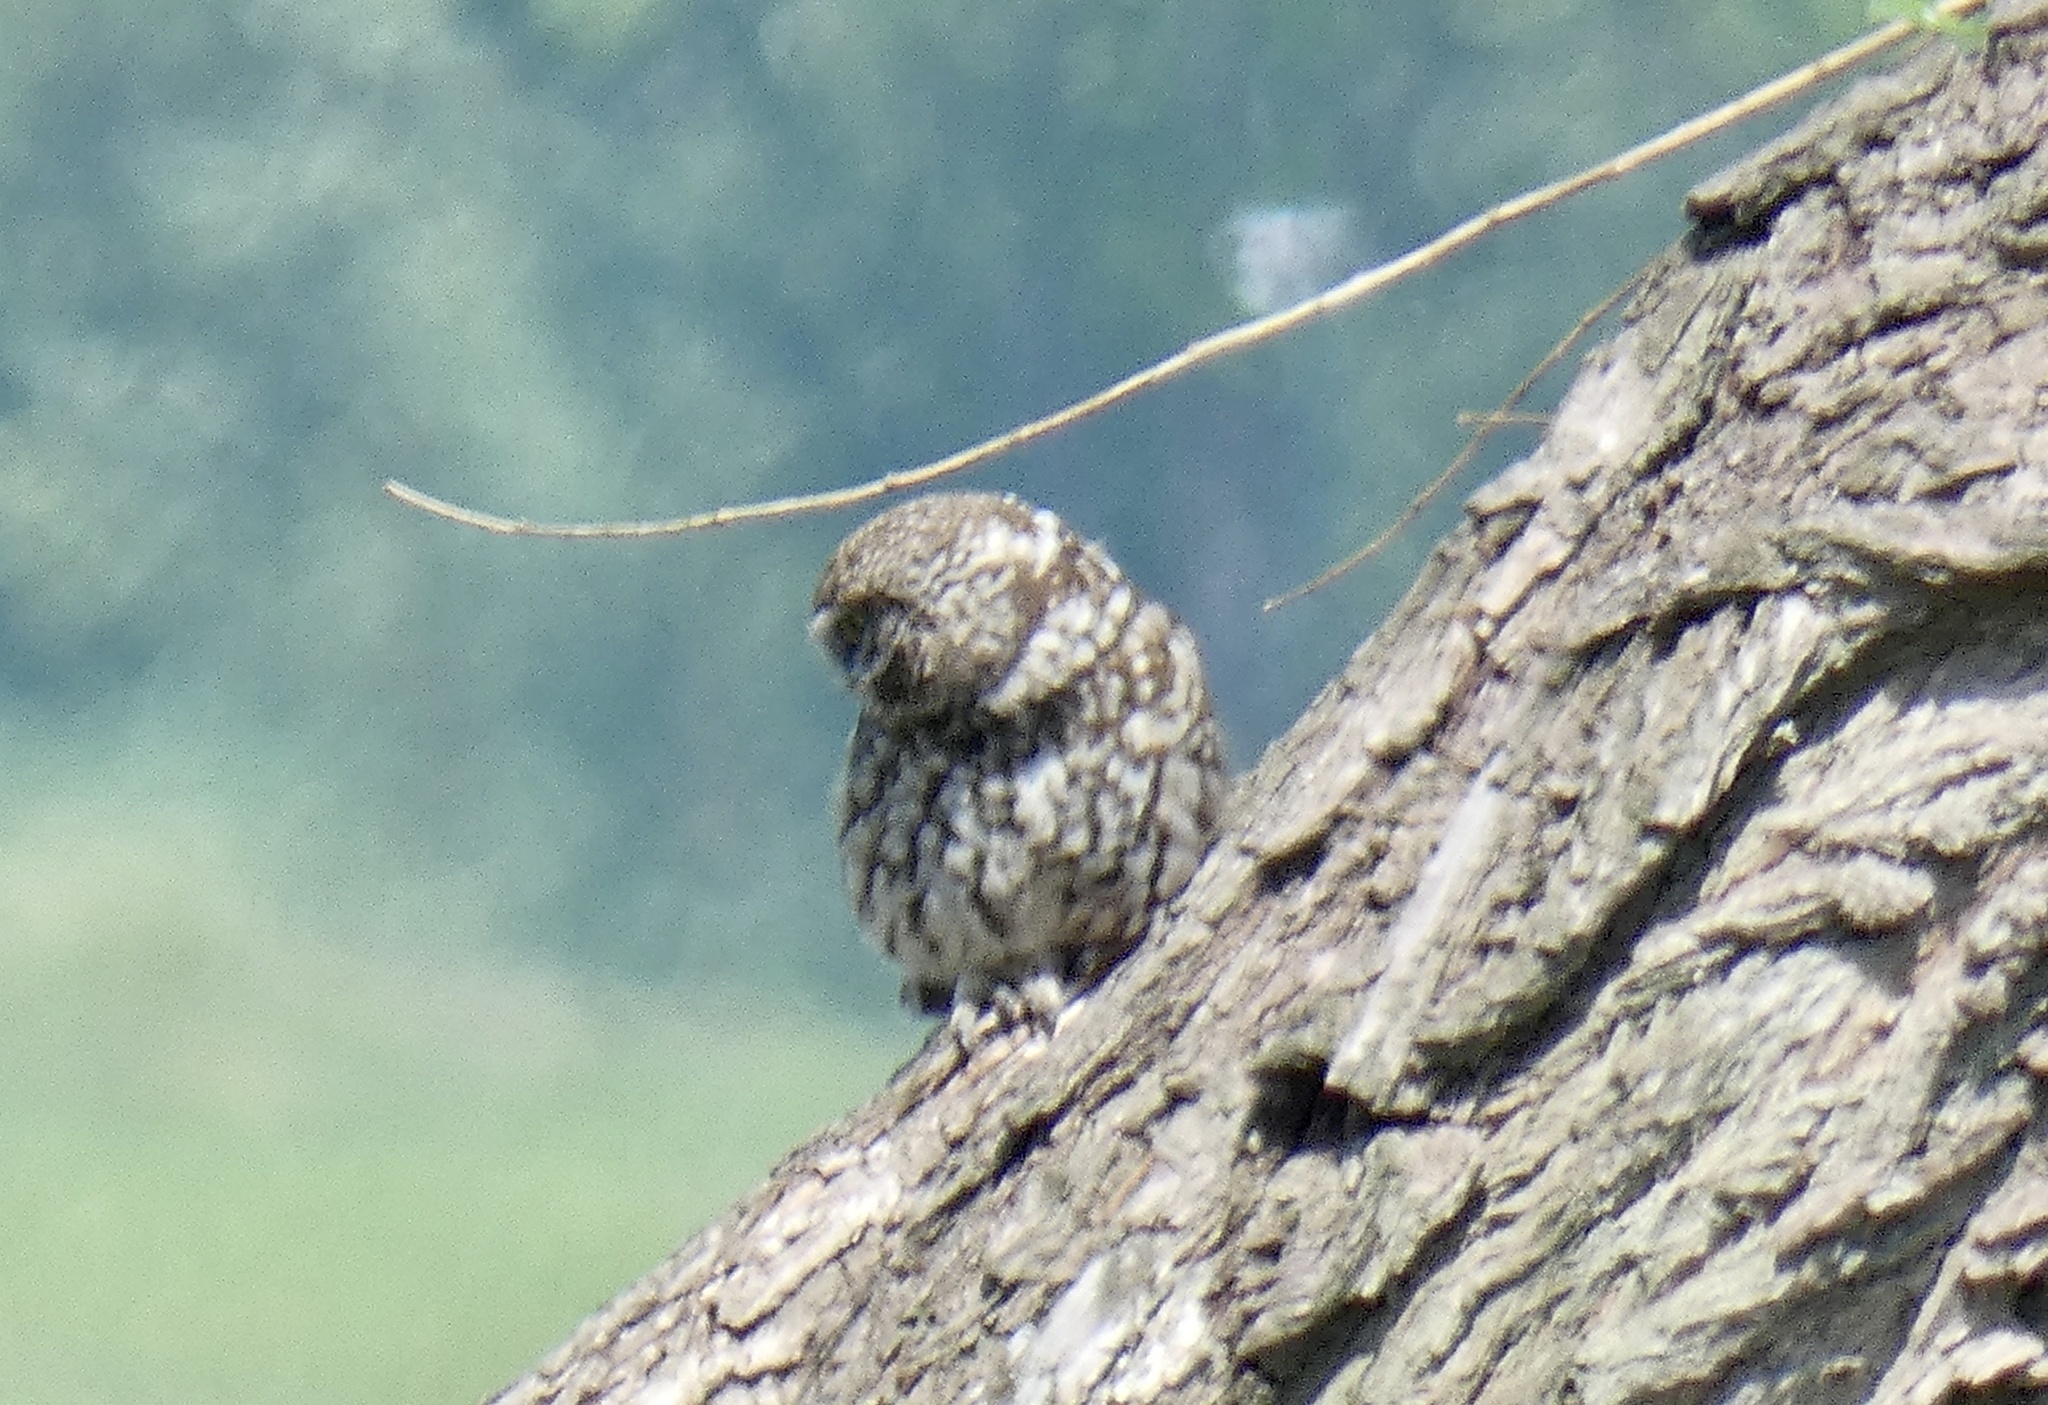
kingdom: Animalia
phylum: Chordata
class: Aves
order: Strigiformes
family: Strigidae
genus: Athene
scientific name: Athene noctua
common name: Little owl
